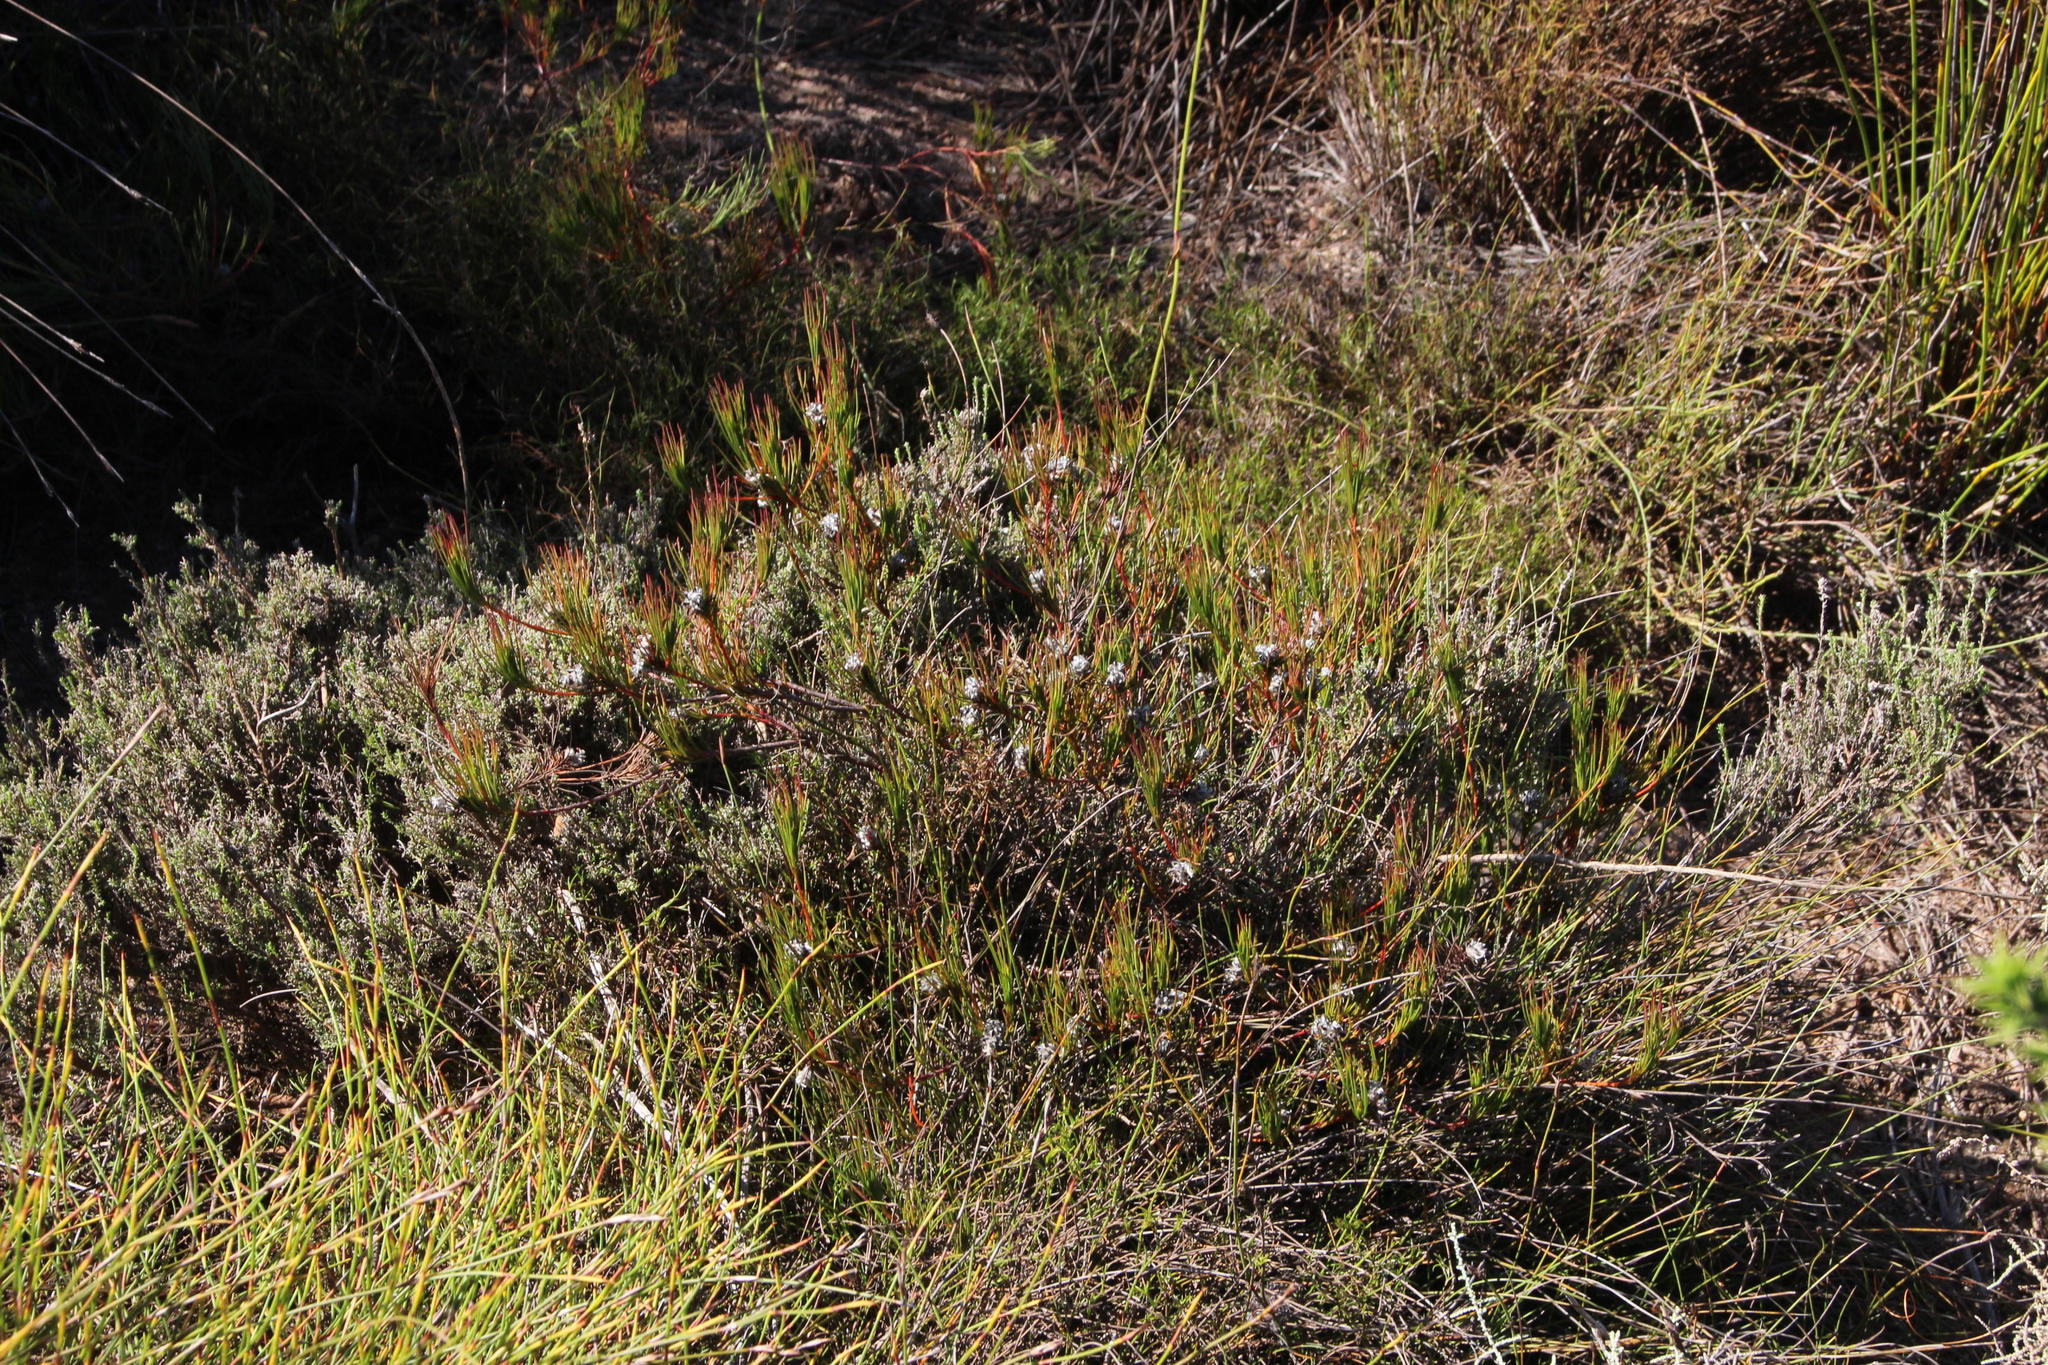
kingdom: Plantae
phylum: Tracheophyta
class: Magnoliopsida
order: Proteales
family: Proteaceae
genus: Serruria
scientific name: Serruria deluvialis
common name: Grass spiderhead
